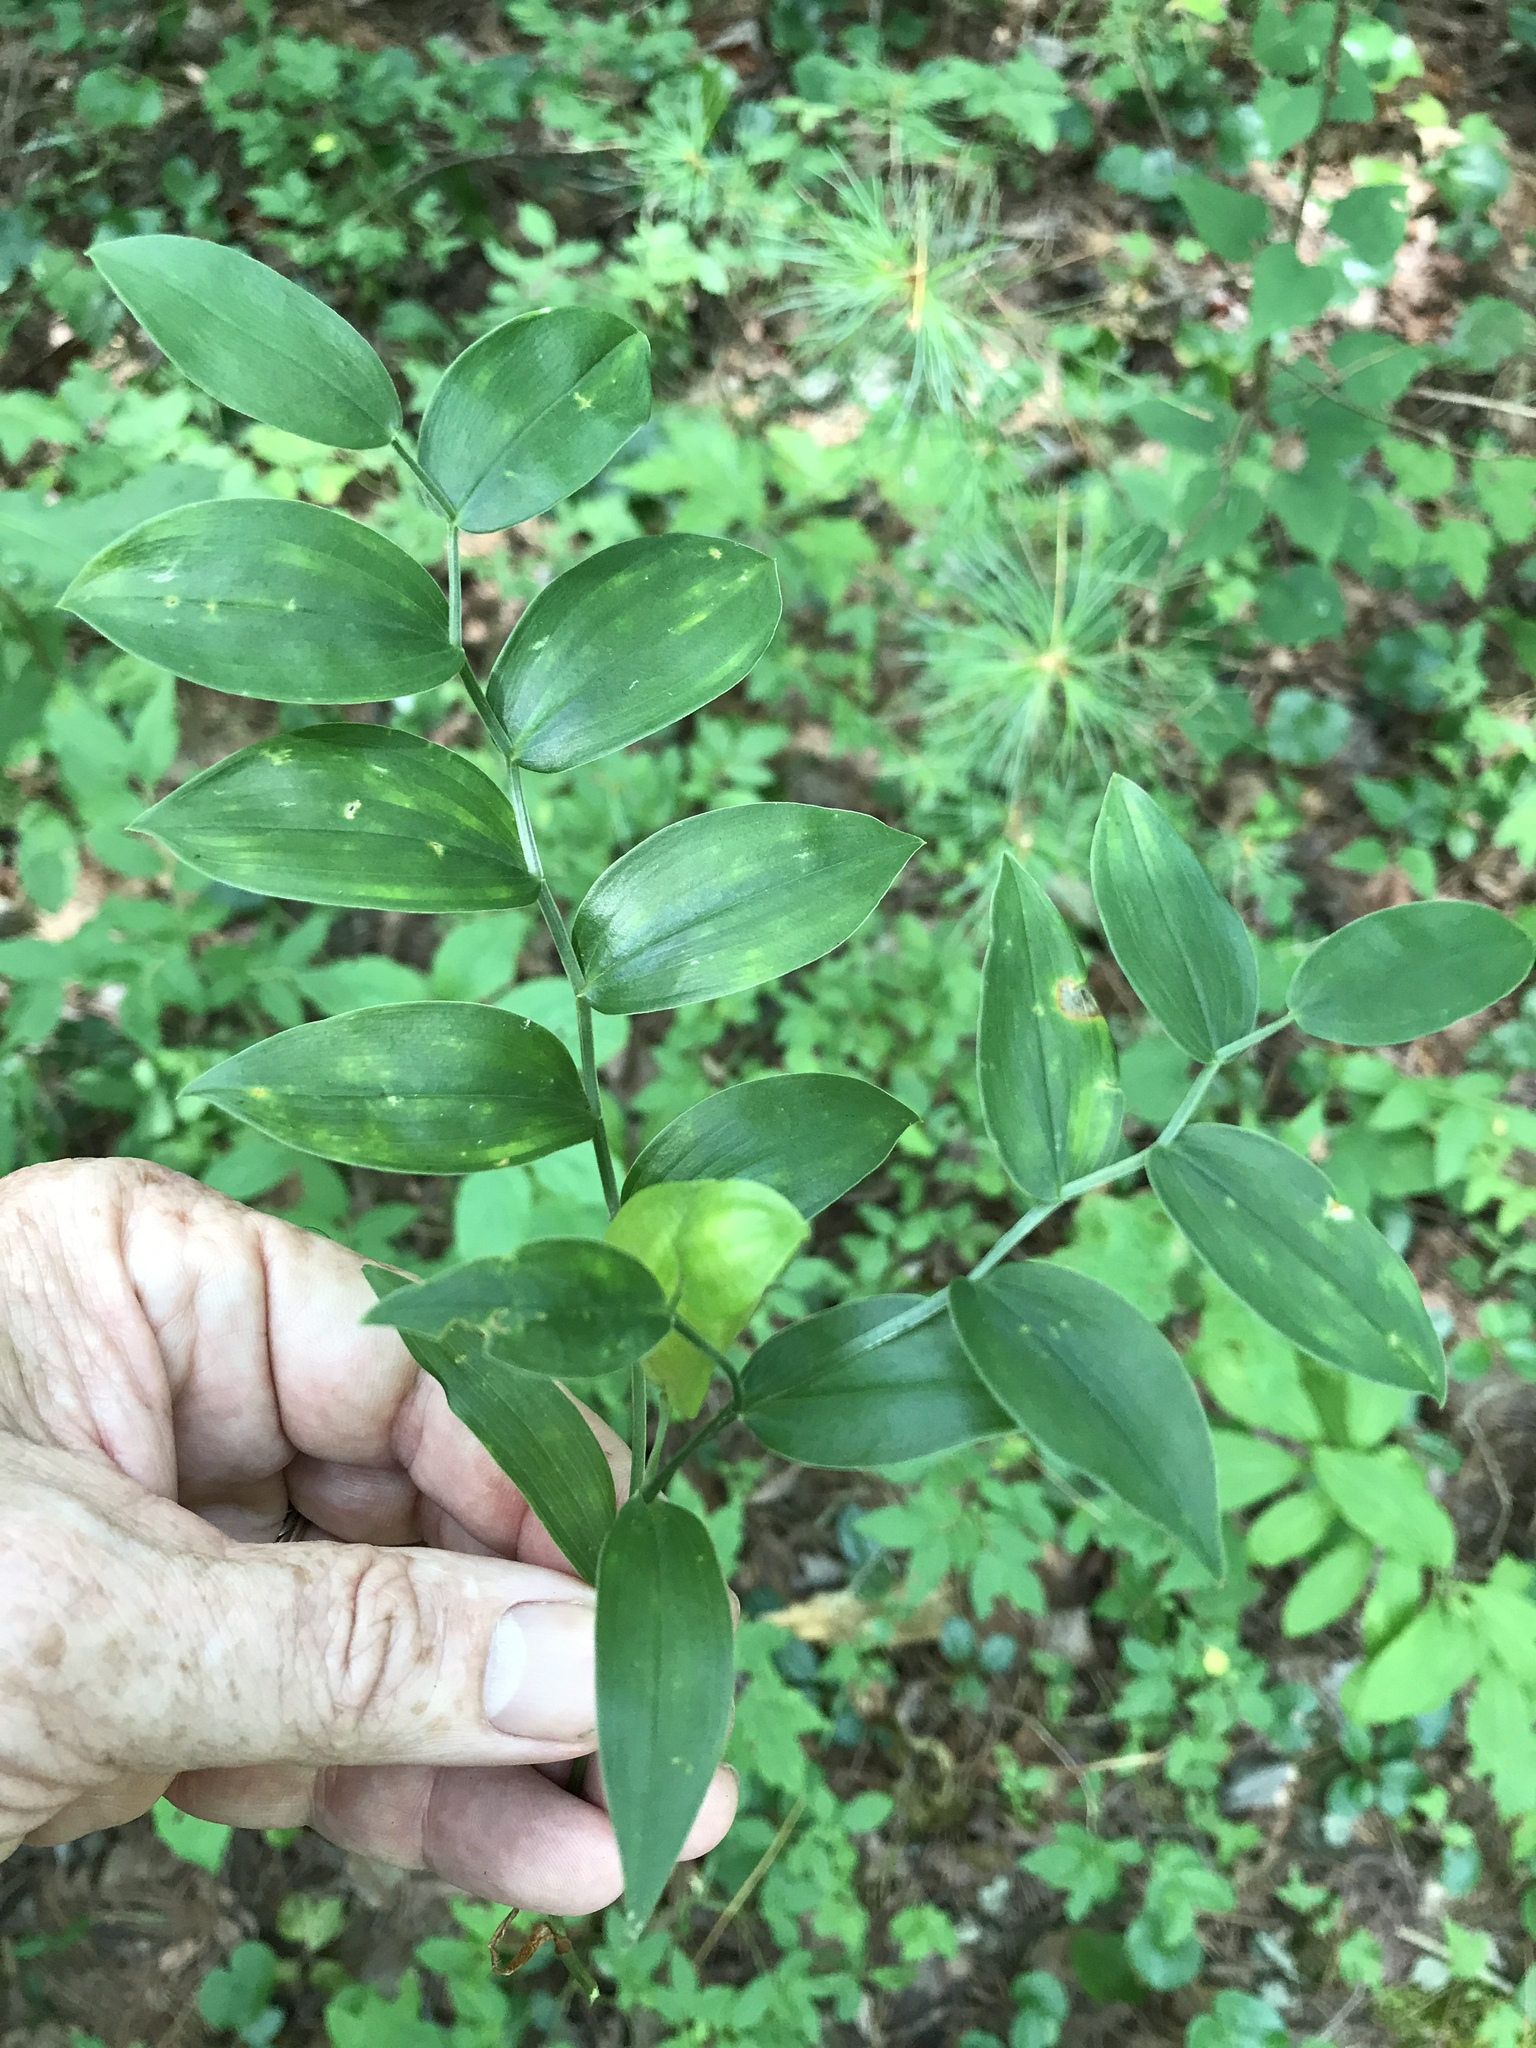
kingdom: Plantae
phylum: Tracheophyta
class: Liliopsida
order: Liliales
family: Colchicaceae
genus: Uvularia
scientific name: Uvularia puberula
